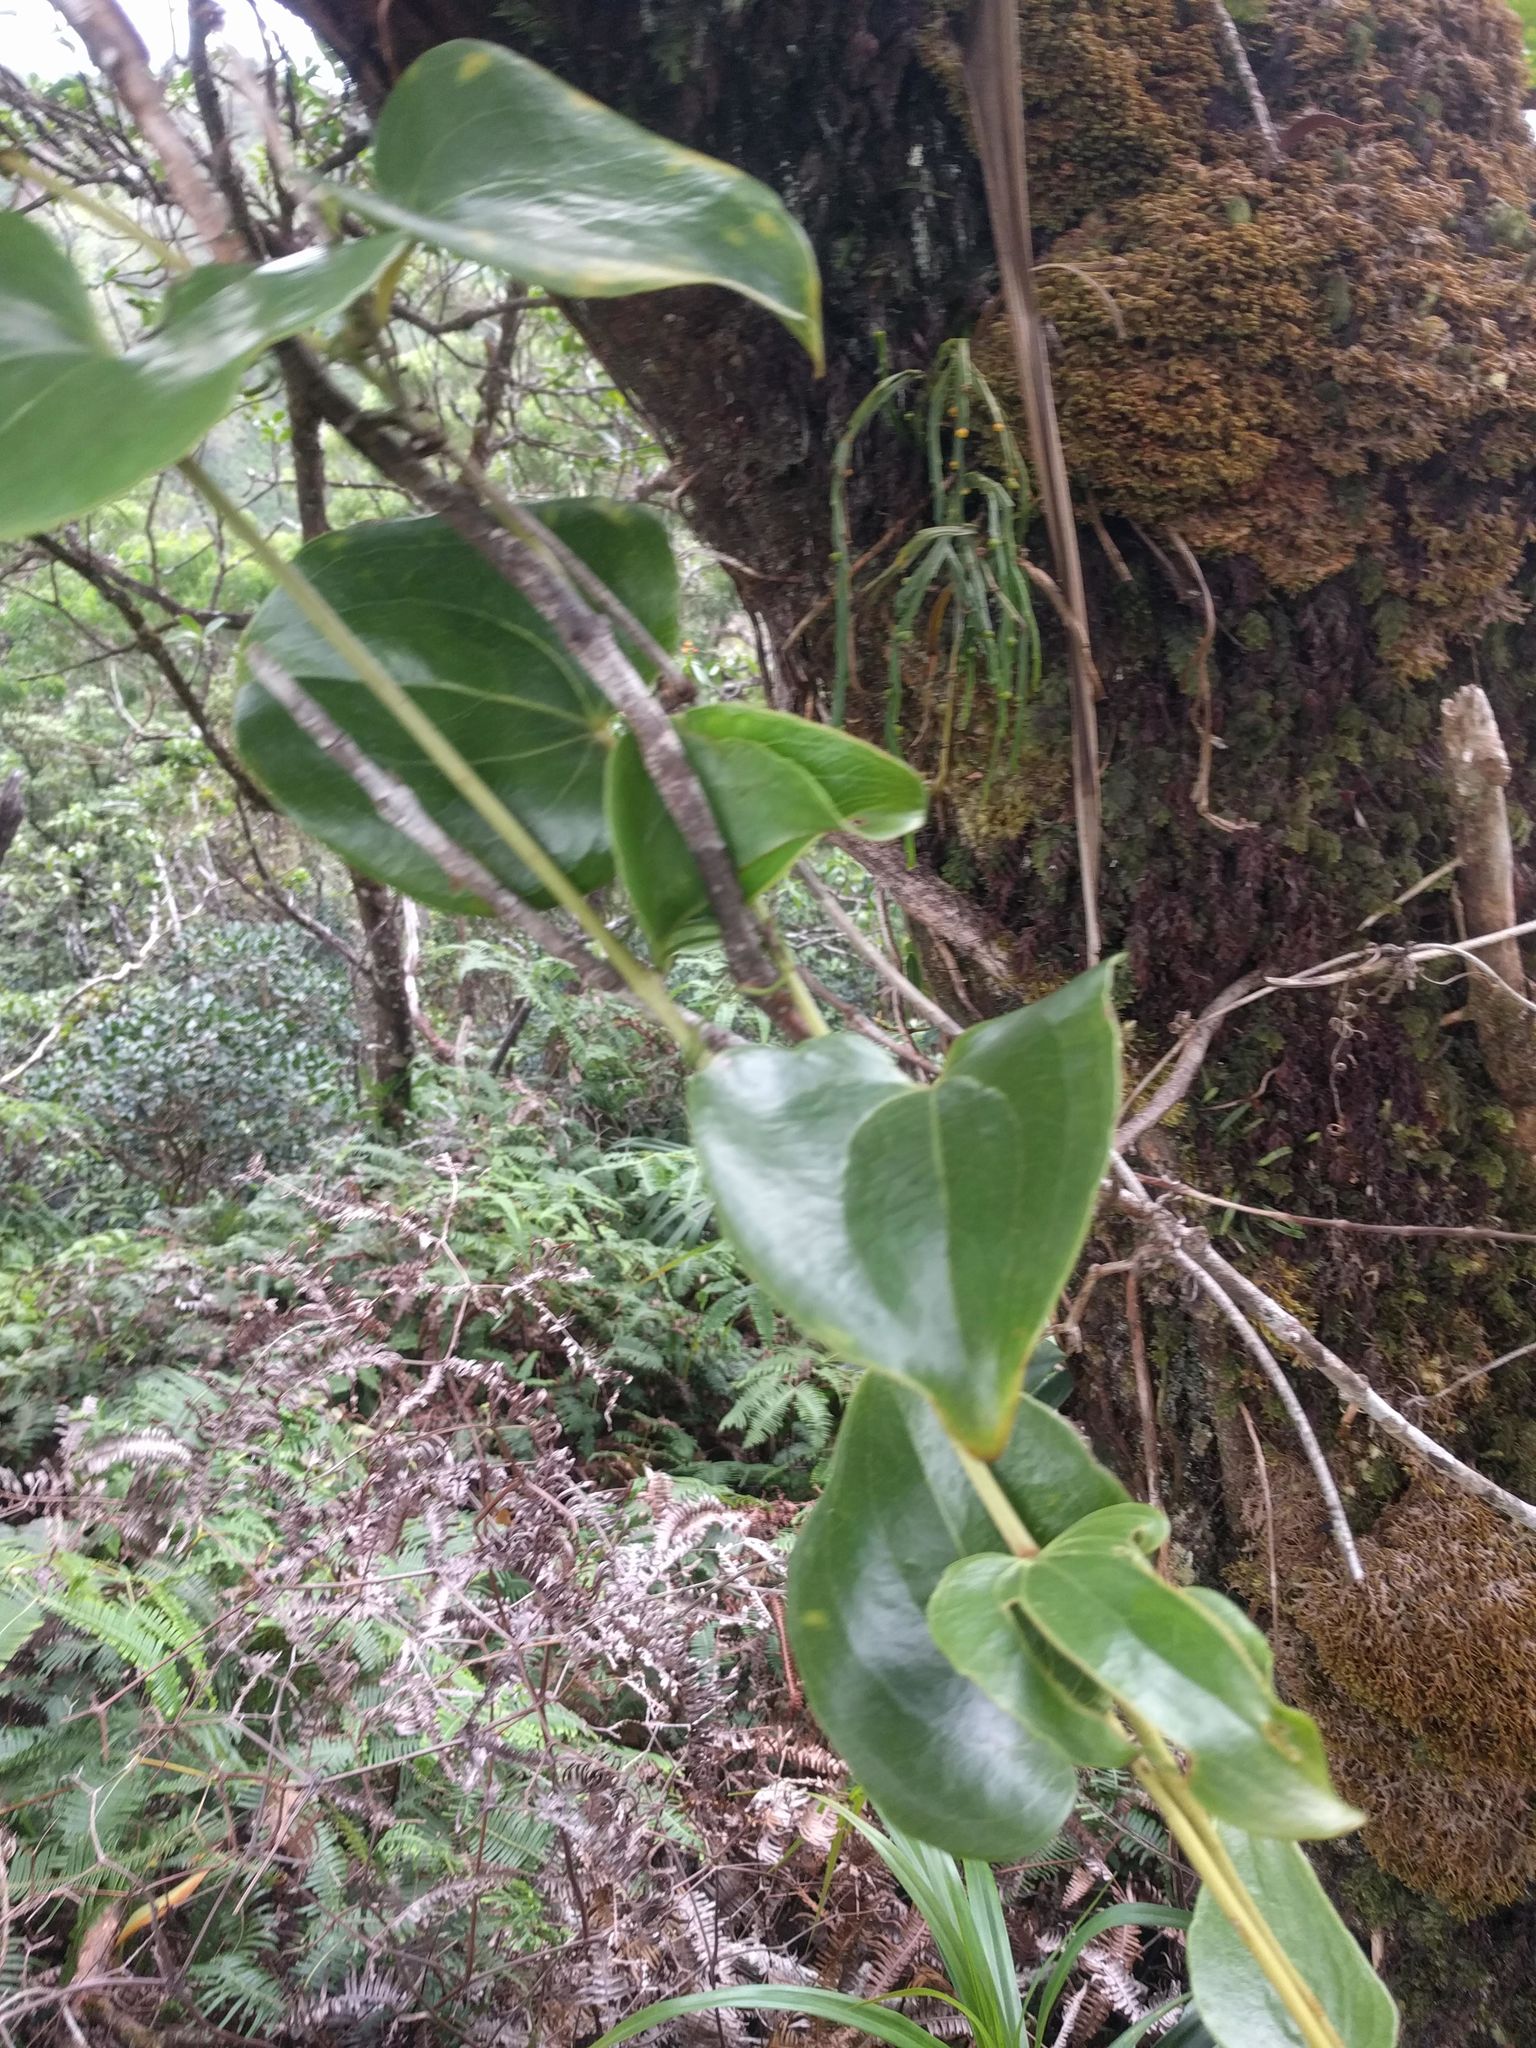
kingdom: Plantae
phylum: Tracheophyta
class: Liliopsida
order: Liliales
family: Smilacaceae
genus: Smilax
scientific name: Smilax melastomifolia
